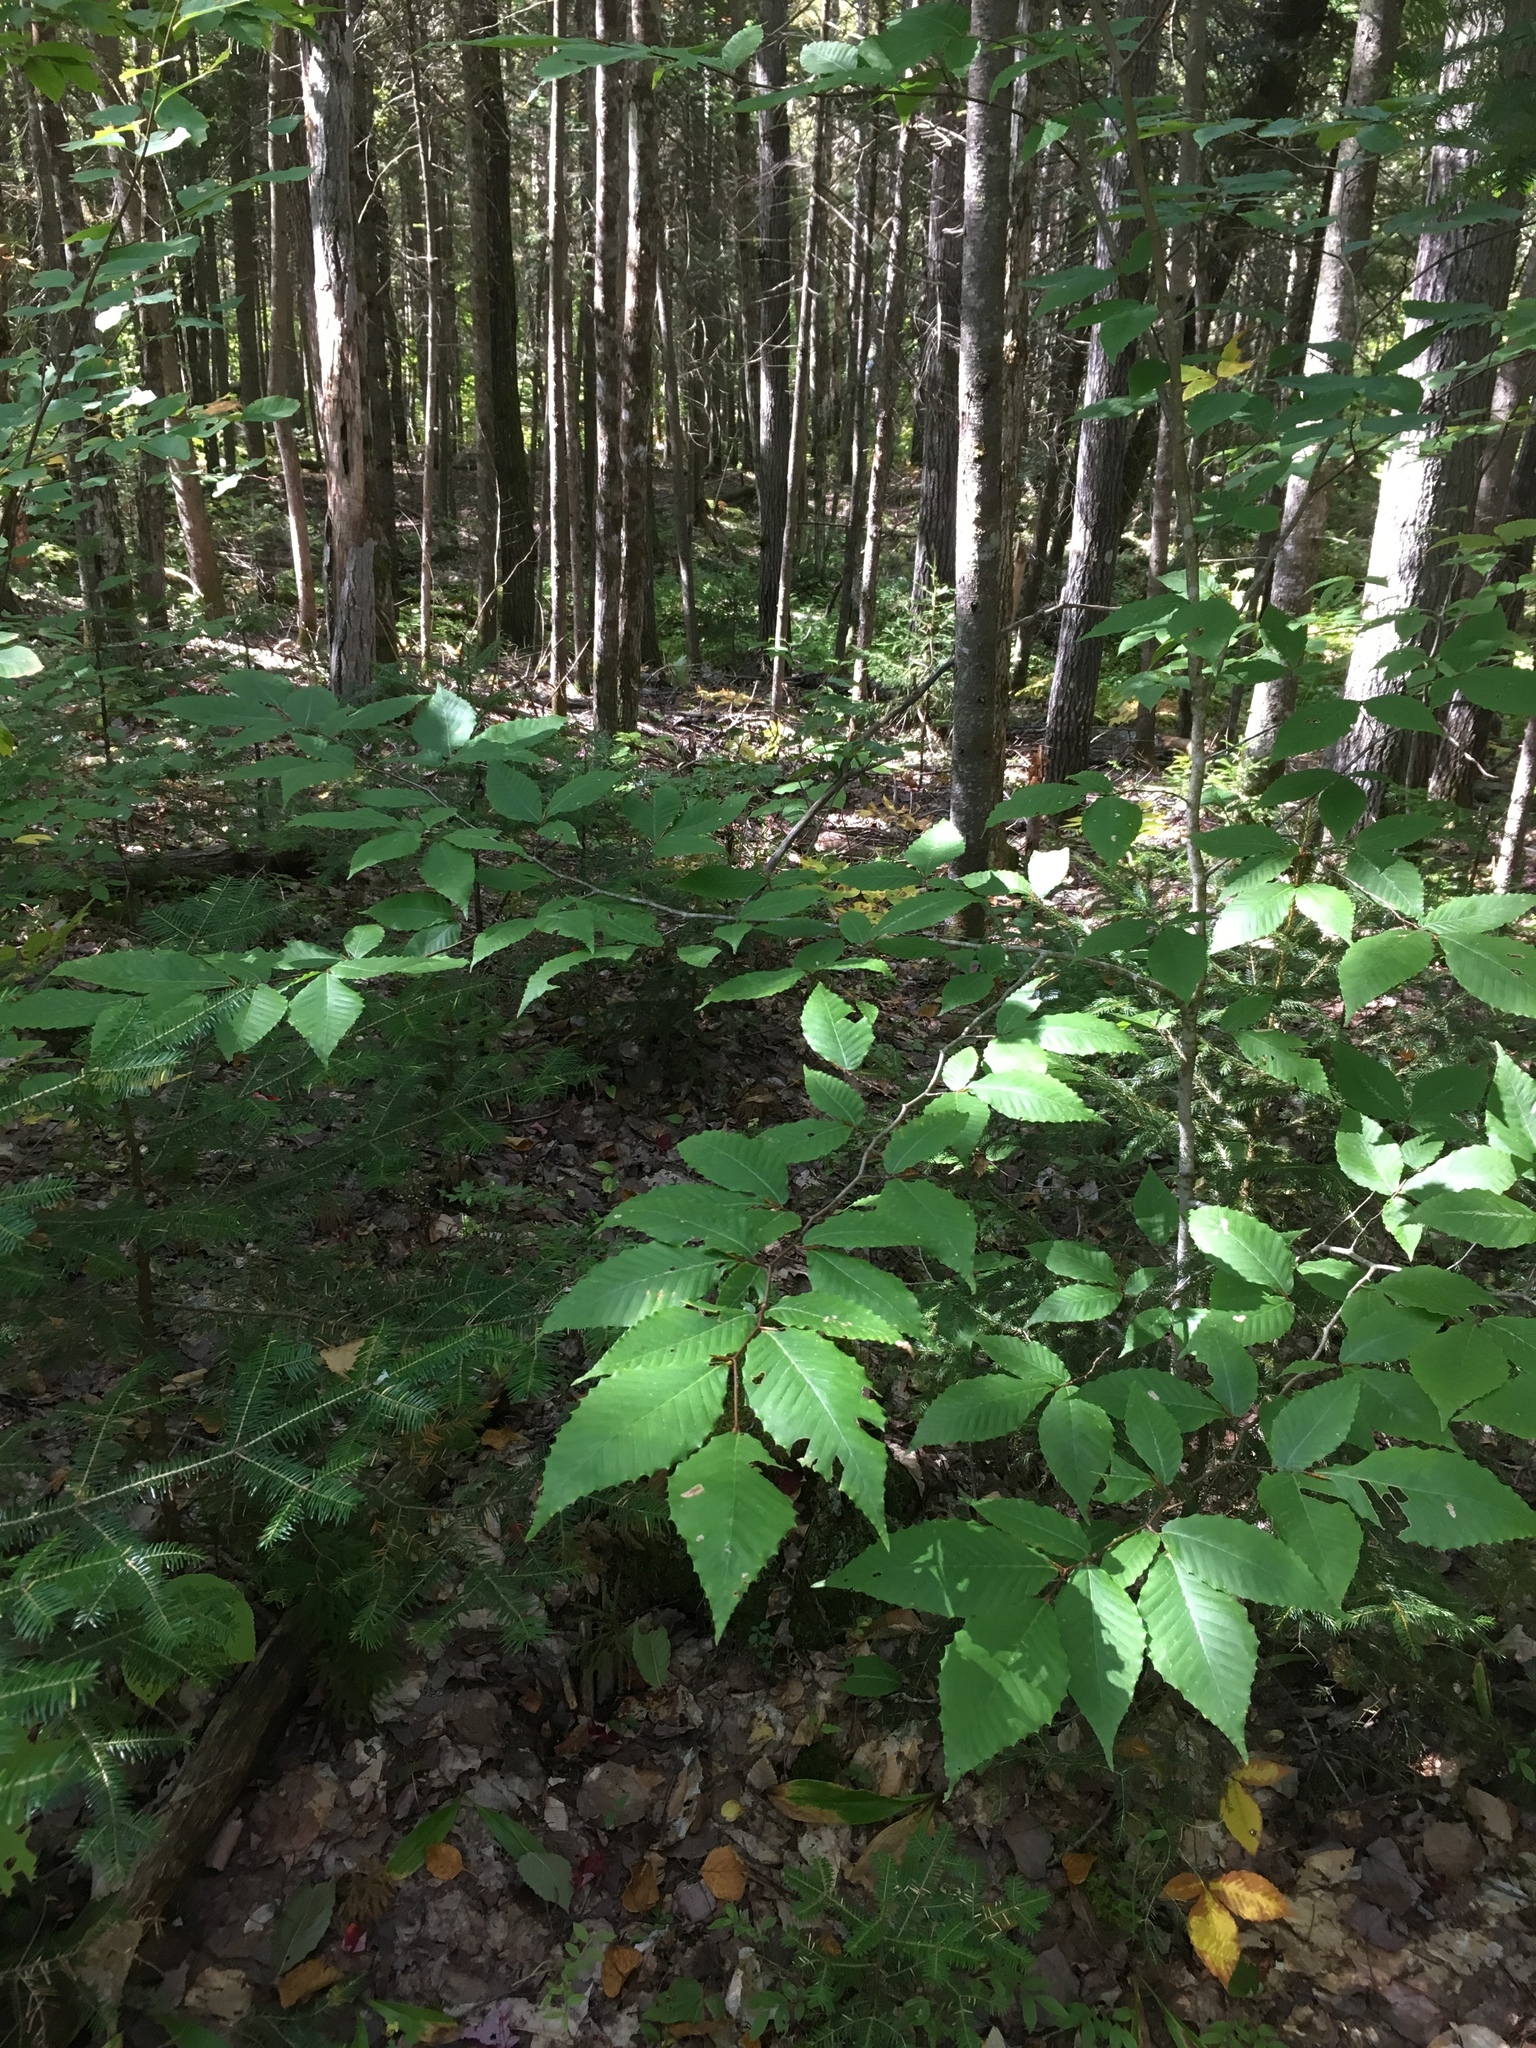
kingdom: Plantae
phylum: Tracheophyta
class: Magnoliopsida
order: Fagales
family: Fagaceae
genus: Fagus
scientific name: Fagus grandifolia
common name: American beech
